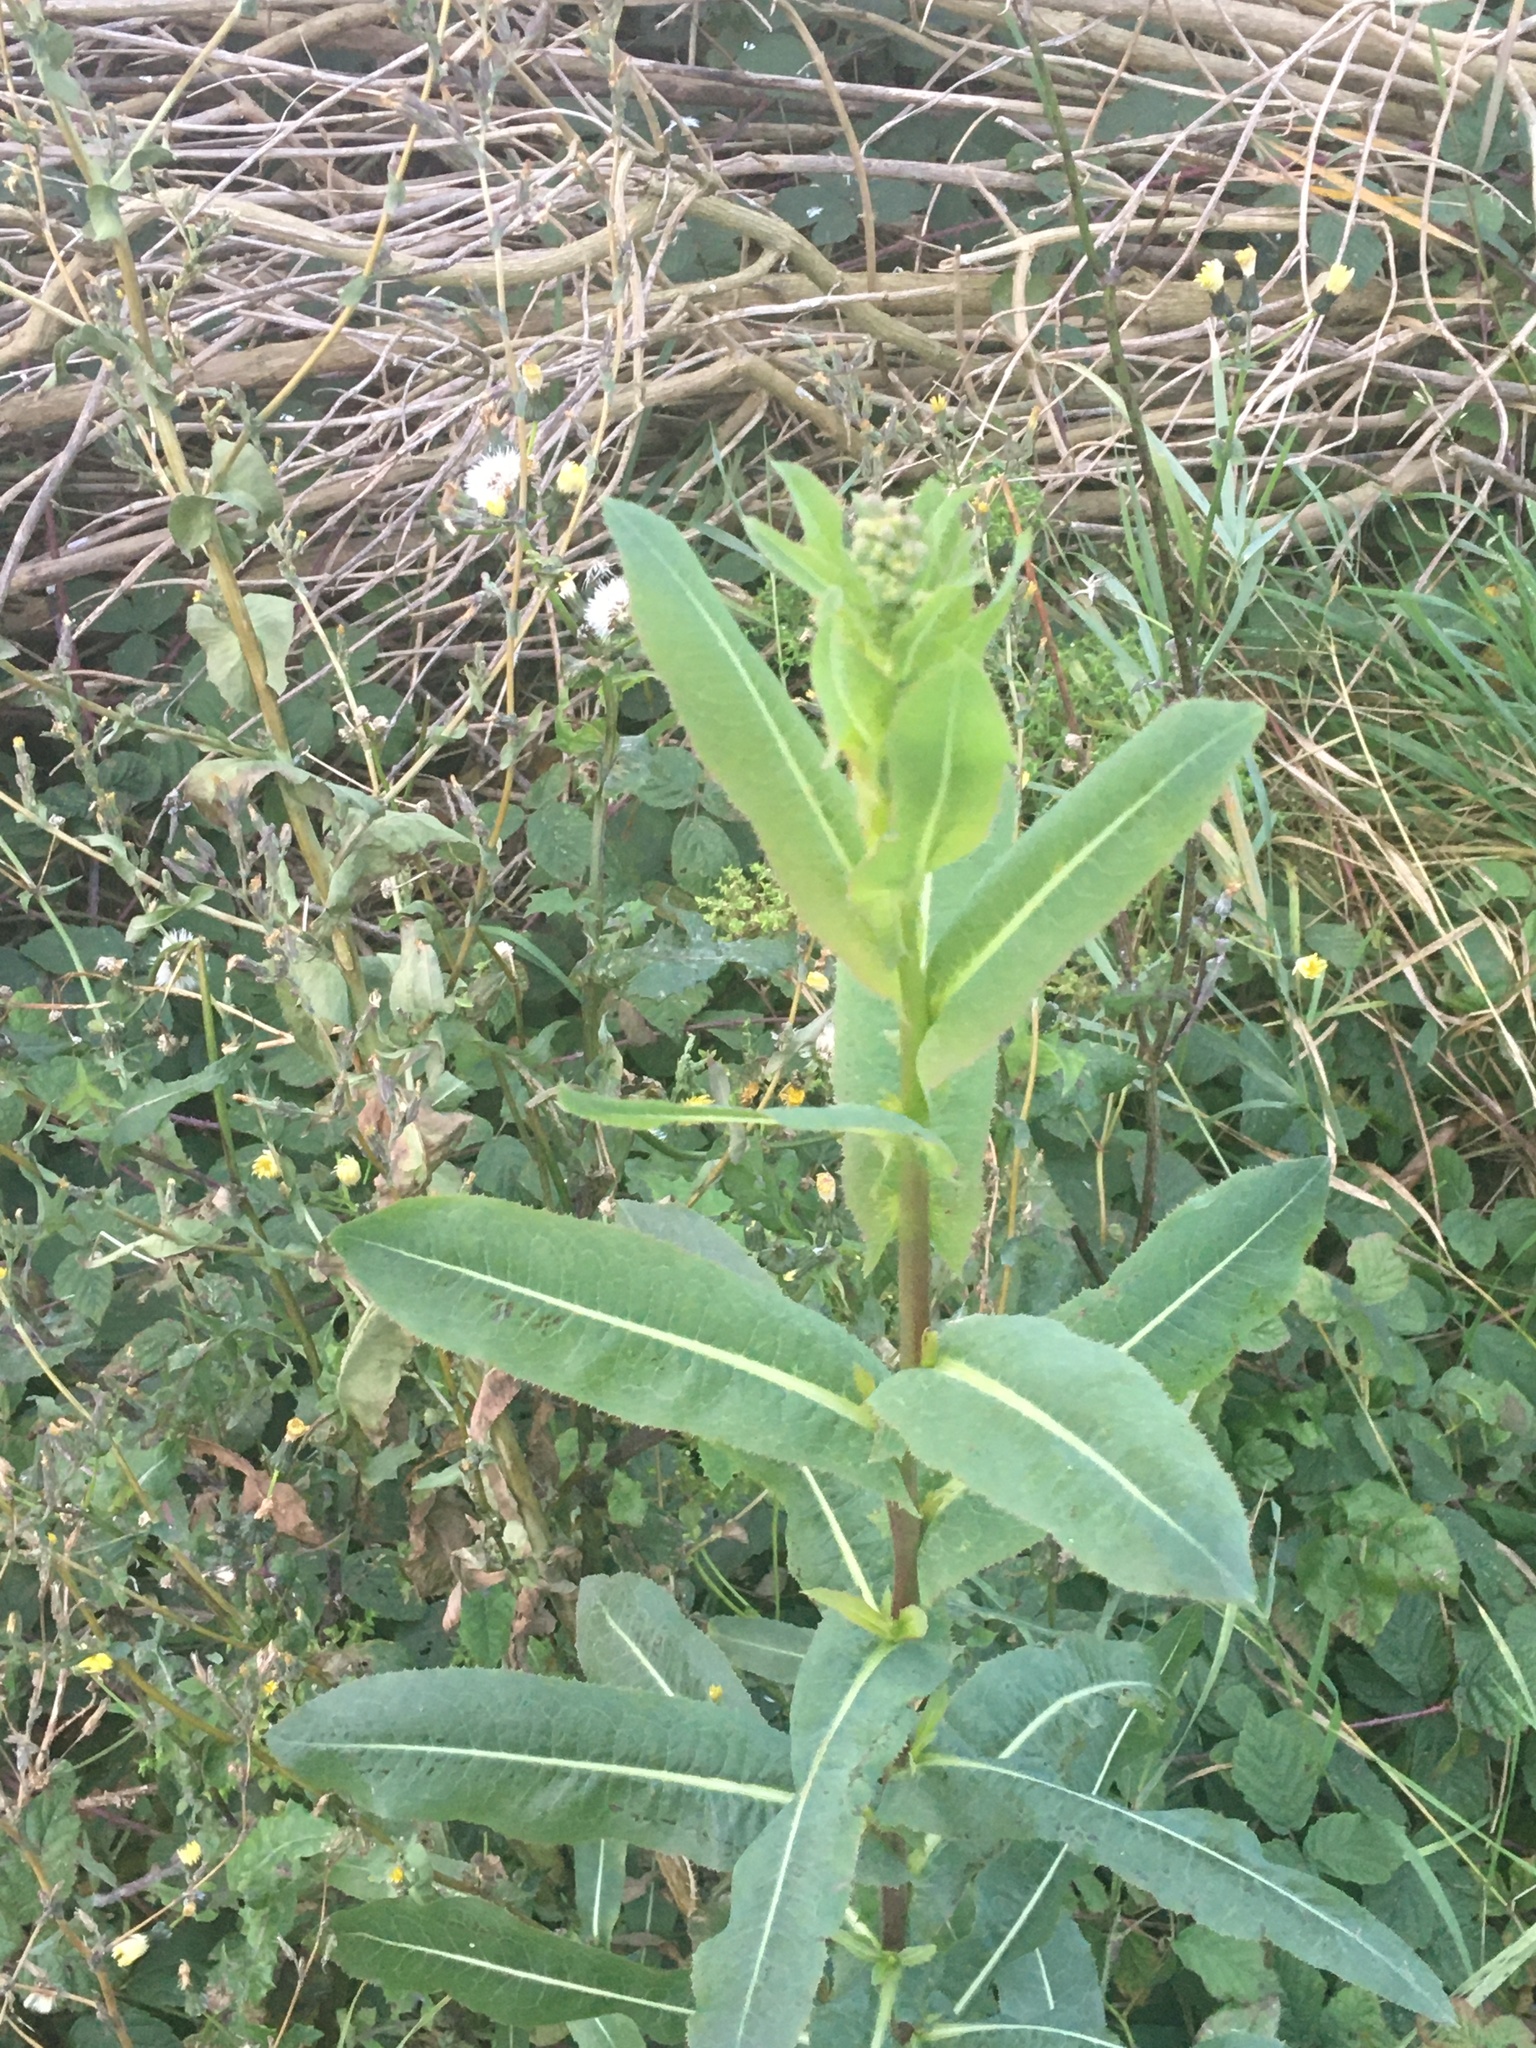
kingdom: Plantae
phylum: Tracheophyta
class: Magnoliopsida
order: Asterales
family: Asteraceae
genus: Lactuca
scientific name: Lactuca serriola
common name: Prickly lettuce
